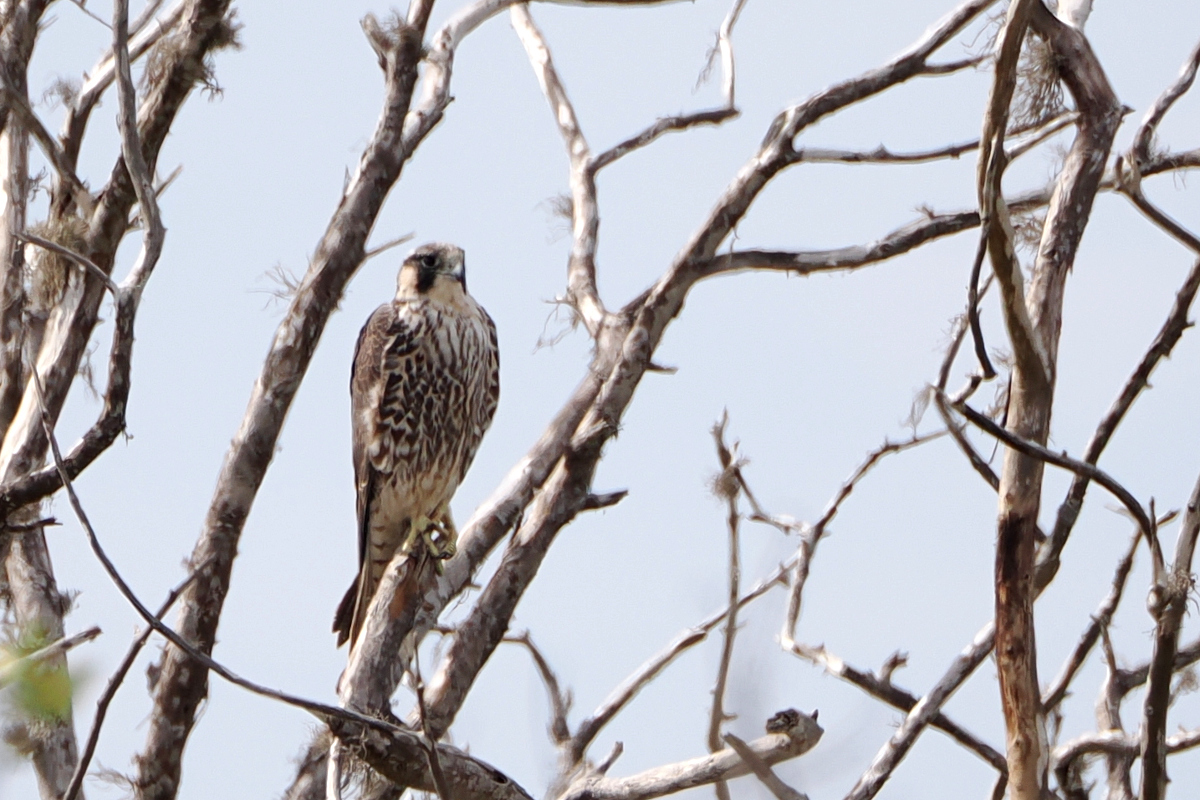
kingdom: Animalia
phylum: Chordata
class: Aves
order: Falconiformes
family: Falconidae
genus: Falco
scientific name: Falco peregrinus
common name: Peregrine falcon
